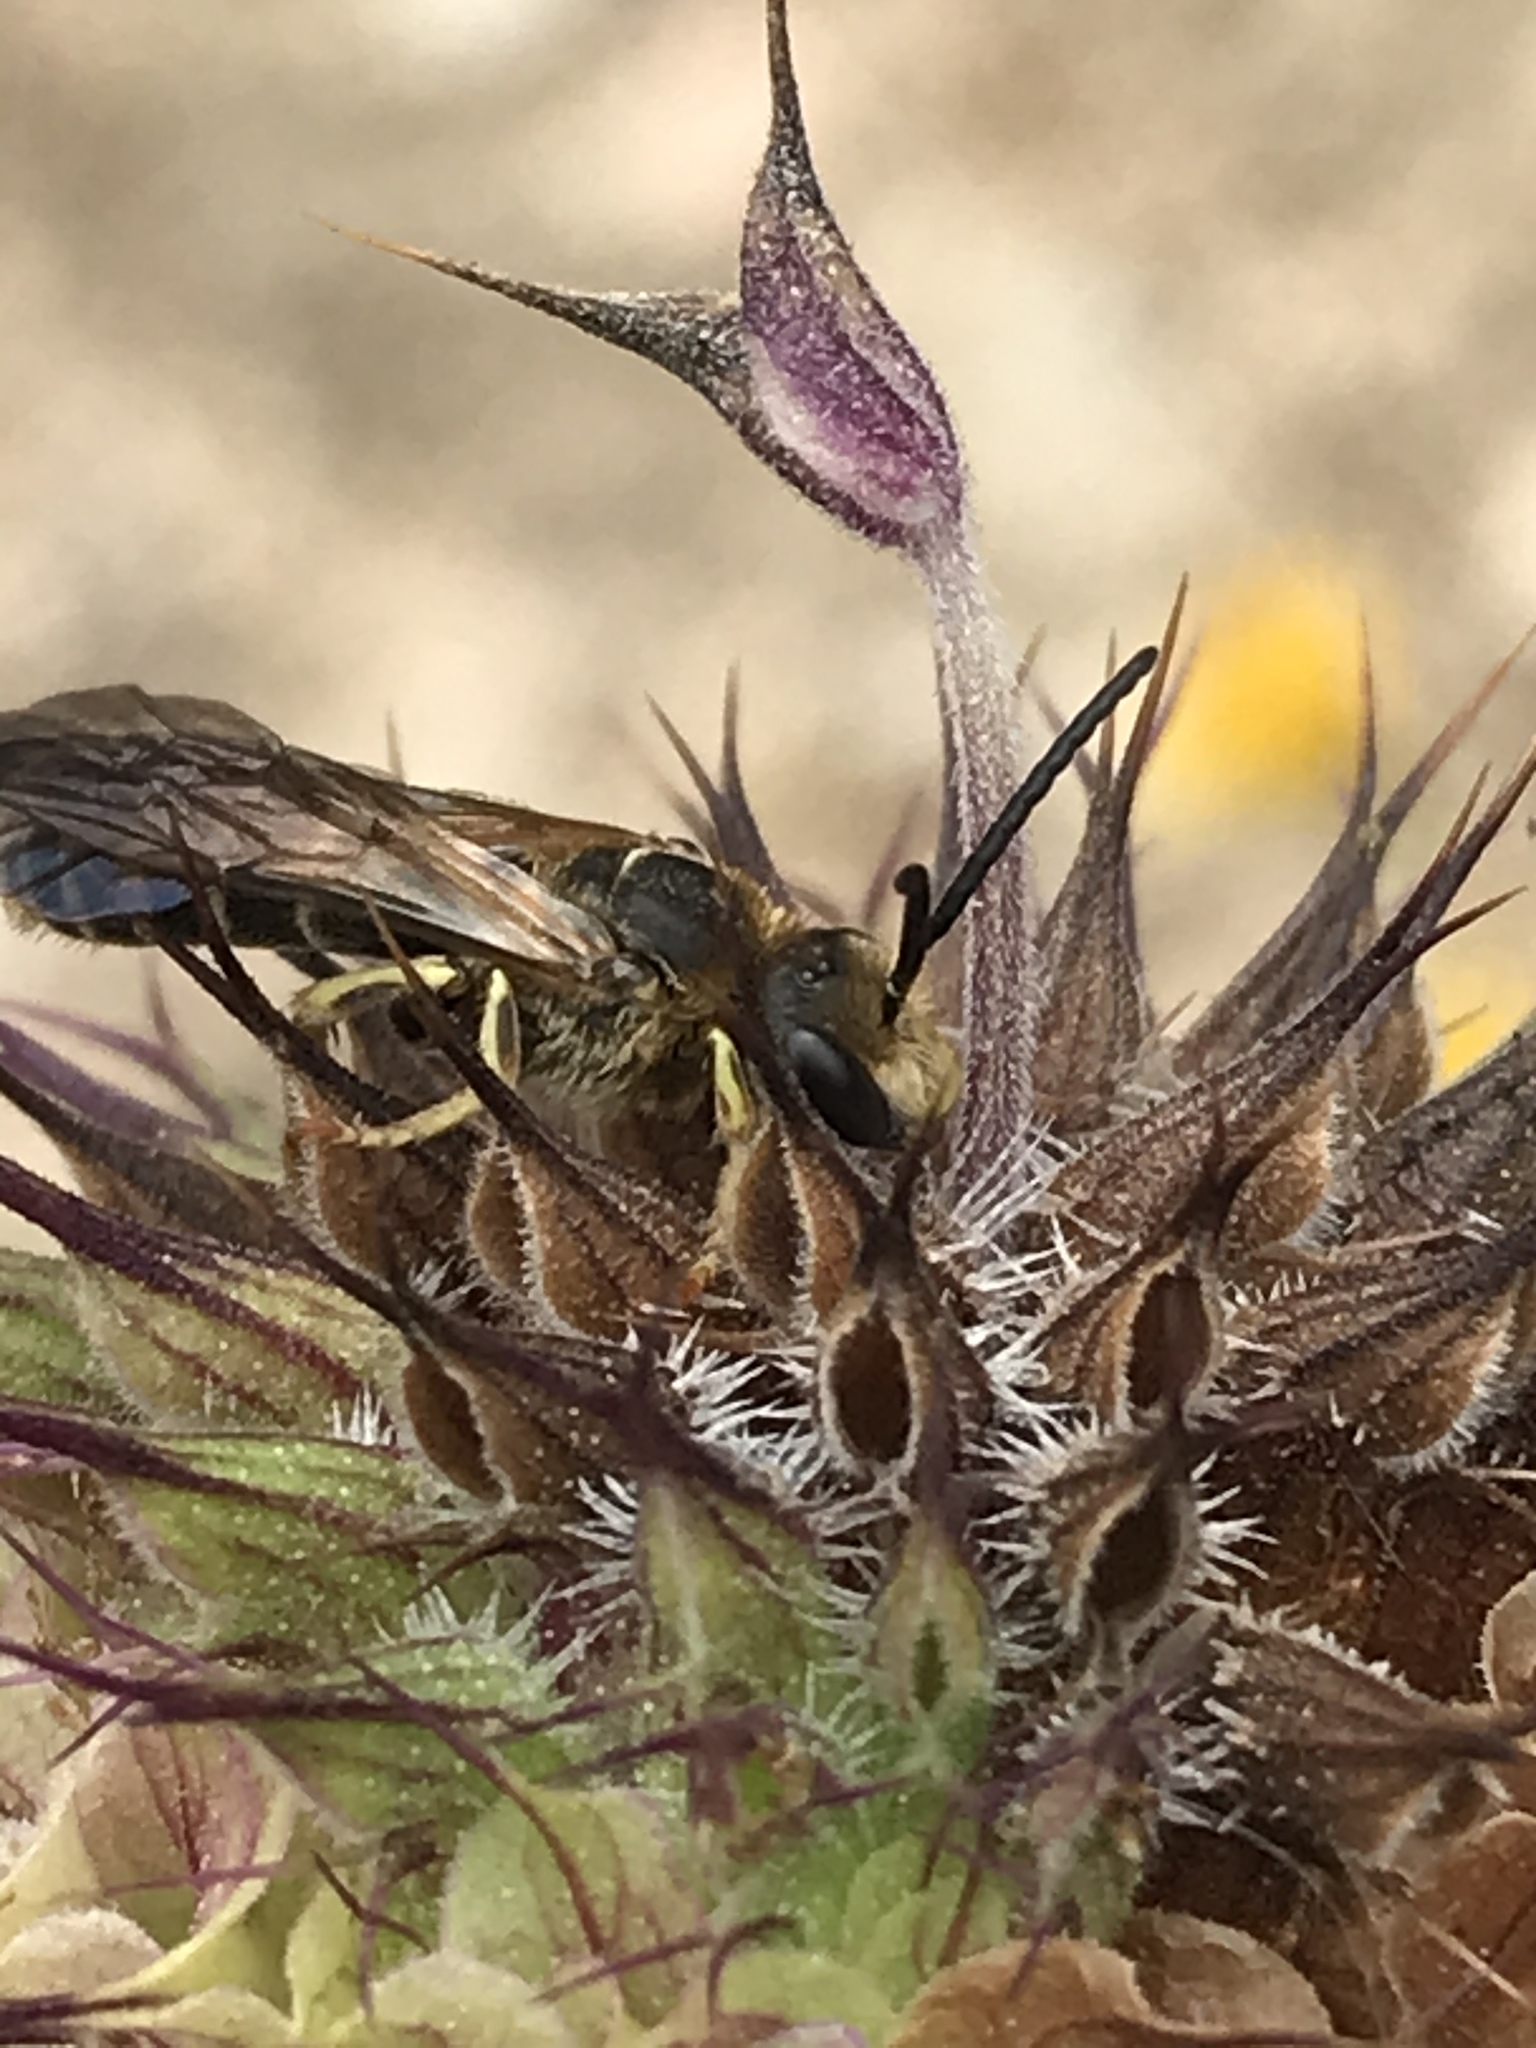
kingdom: Animalia
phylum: Arthropoda
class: Insecta
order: Hymenoptera
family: Halictidae
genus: Halictus
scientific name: Halictus farinosus
